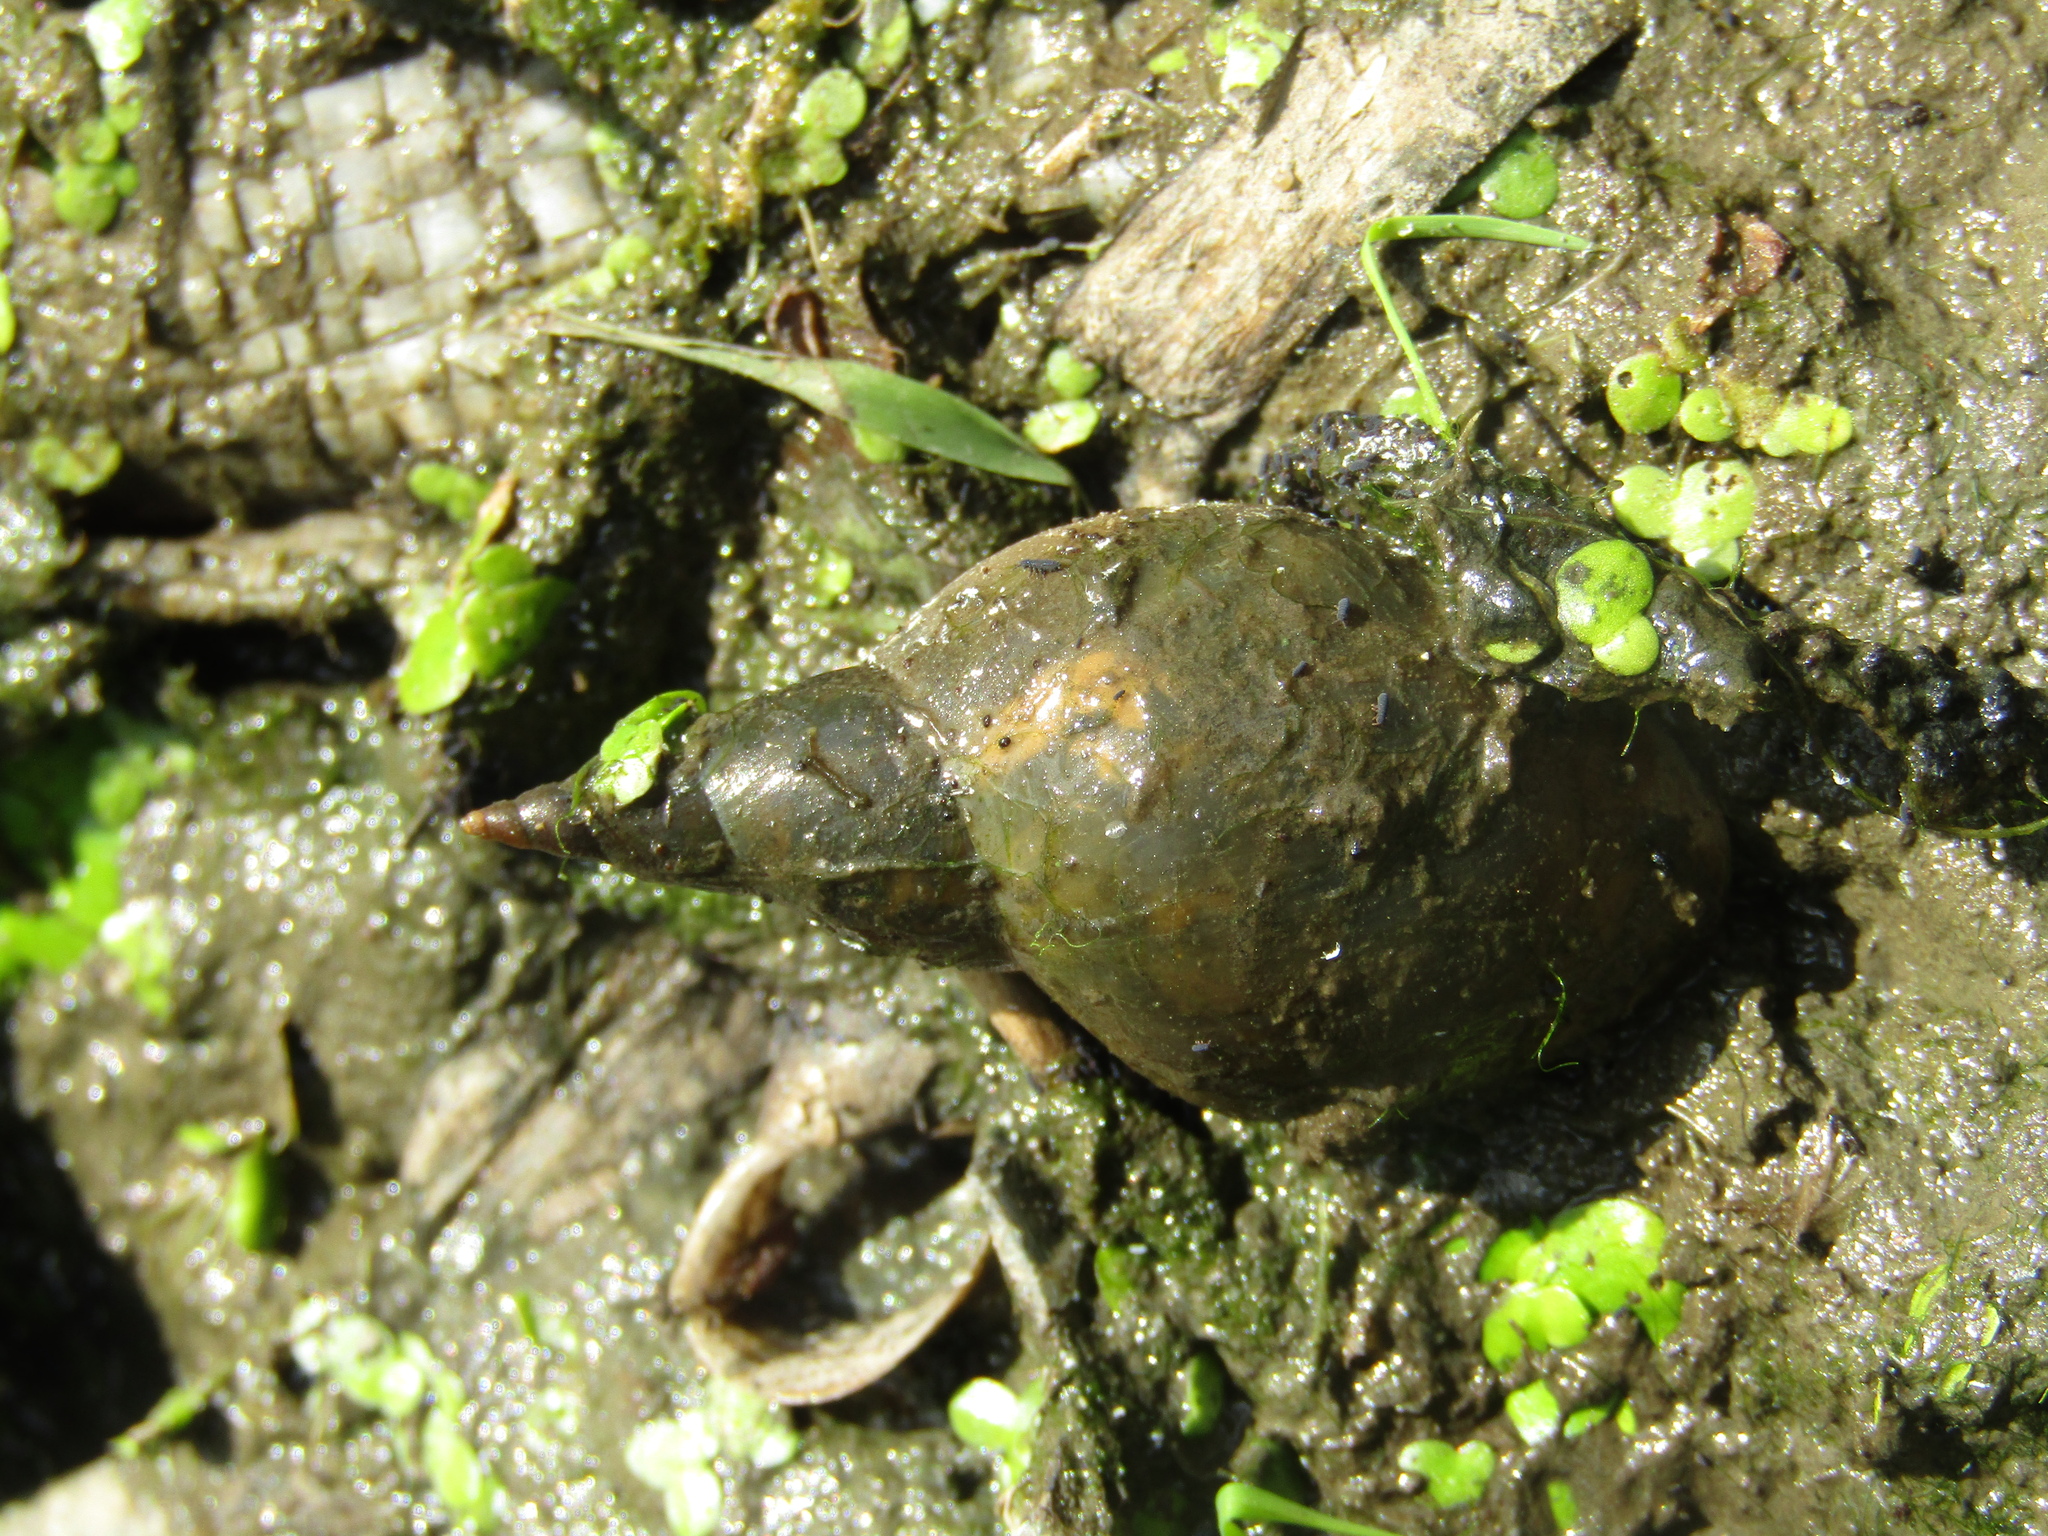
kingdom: Animalia
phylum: Arthropoda
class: Collembola
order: Poduromorpha
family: Poduridae
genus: Podura
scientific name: Podura aquatica
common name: Water springtail
